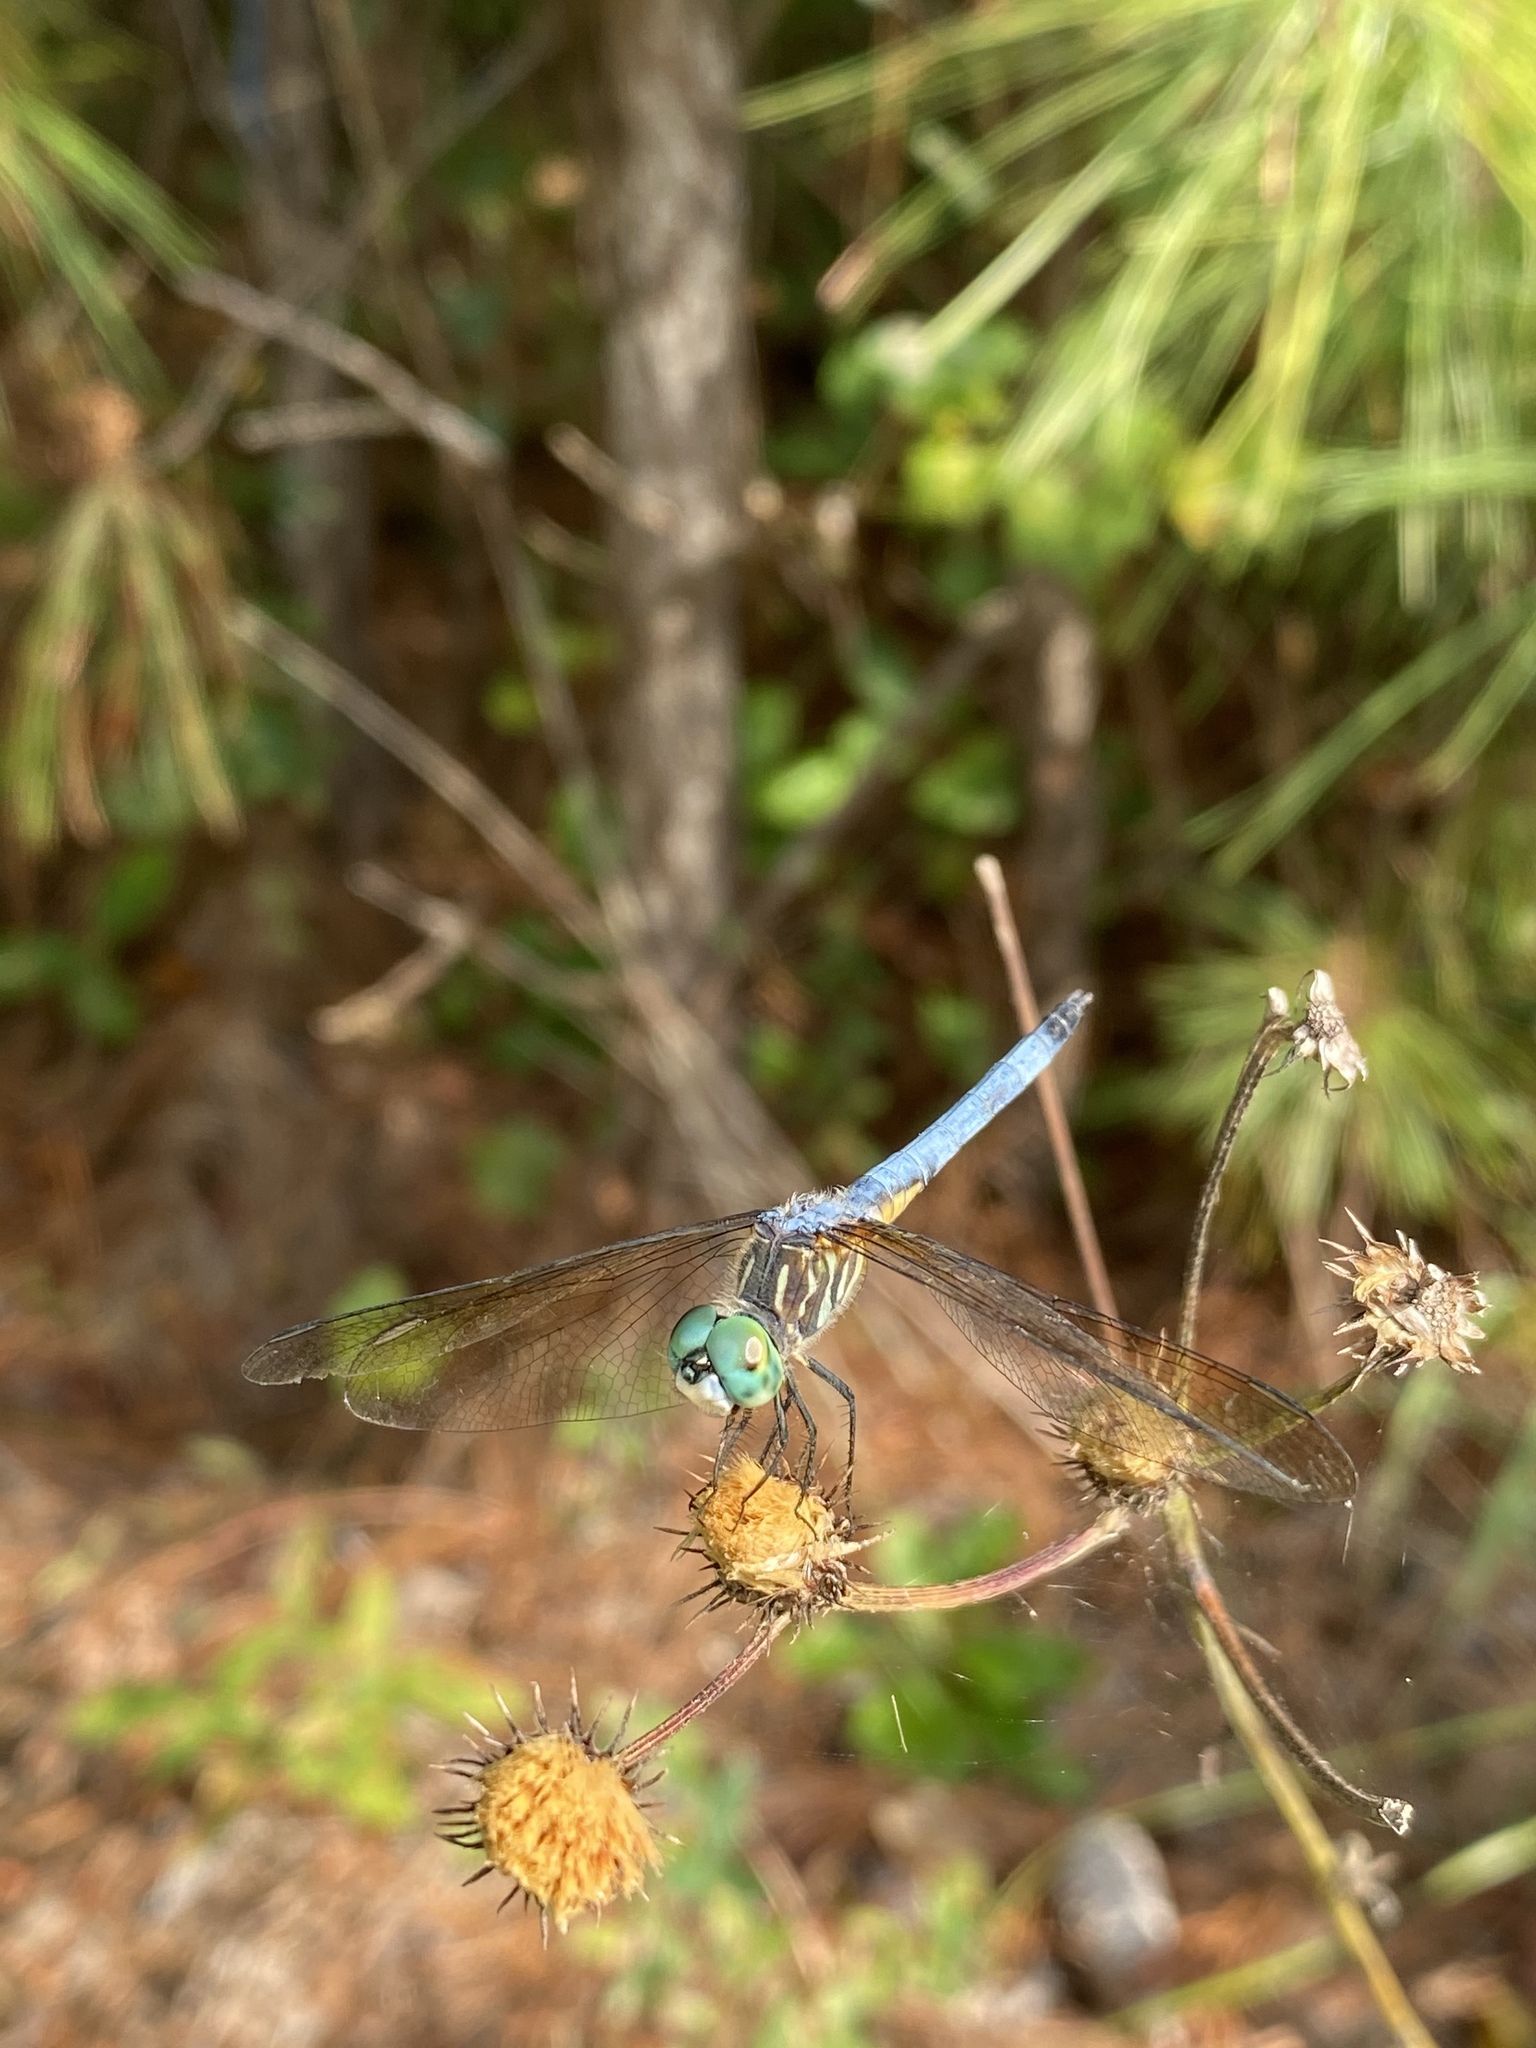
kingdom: Animalia
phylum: Arthropoda
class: Insecta
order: Odonata
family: Libellulidae
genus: Pachydiplax
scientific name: Pachydiplax longipennis
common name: Blue dasher
